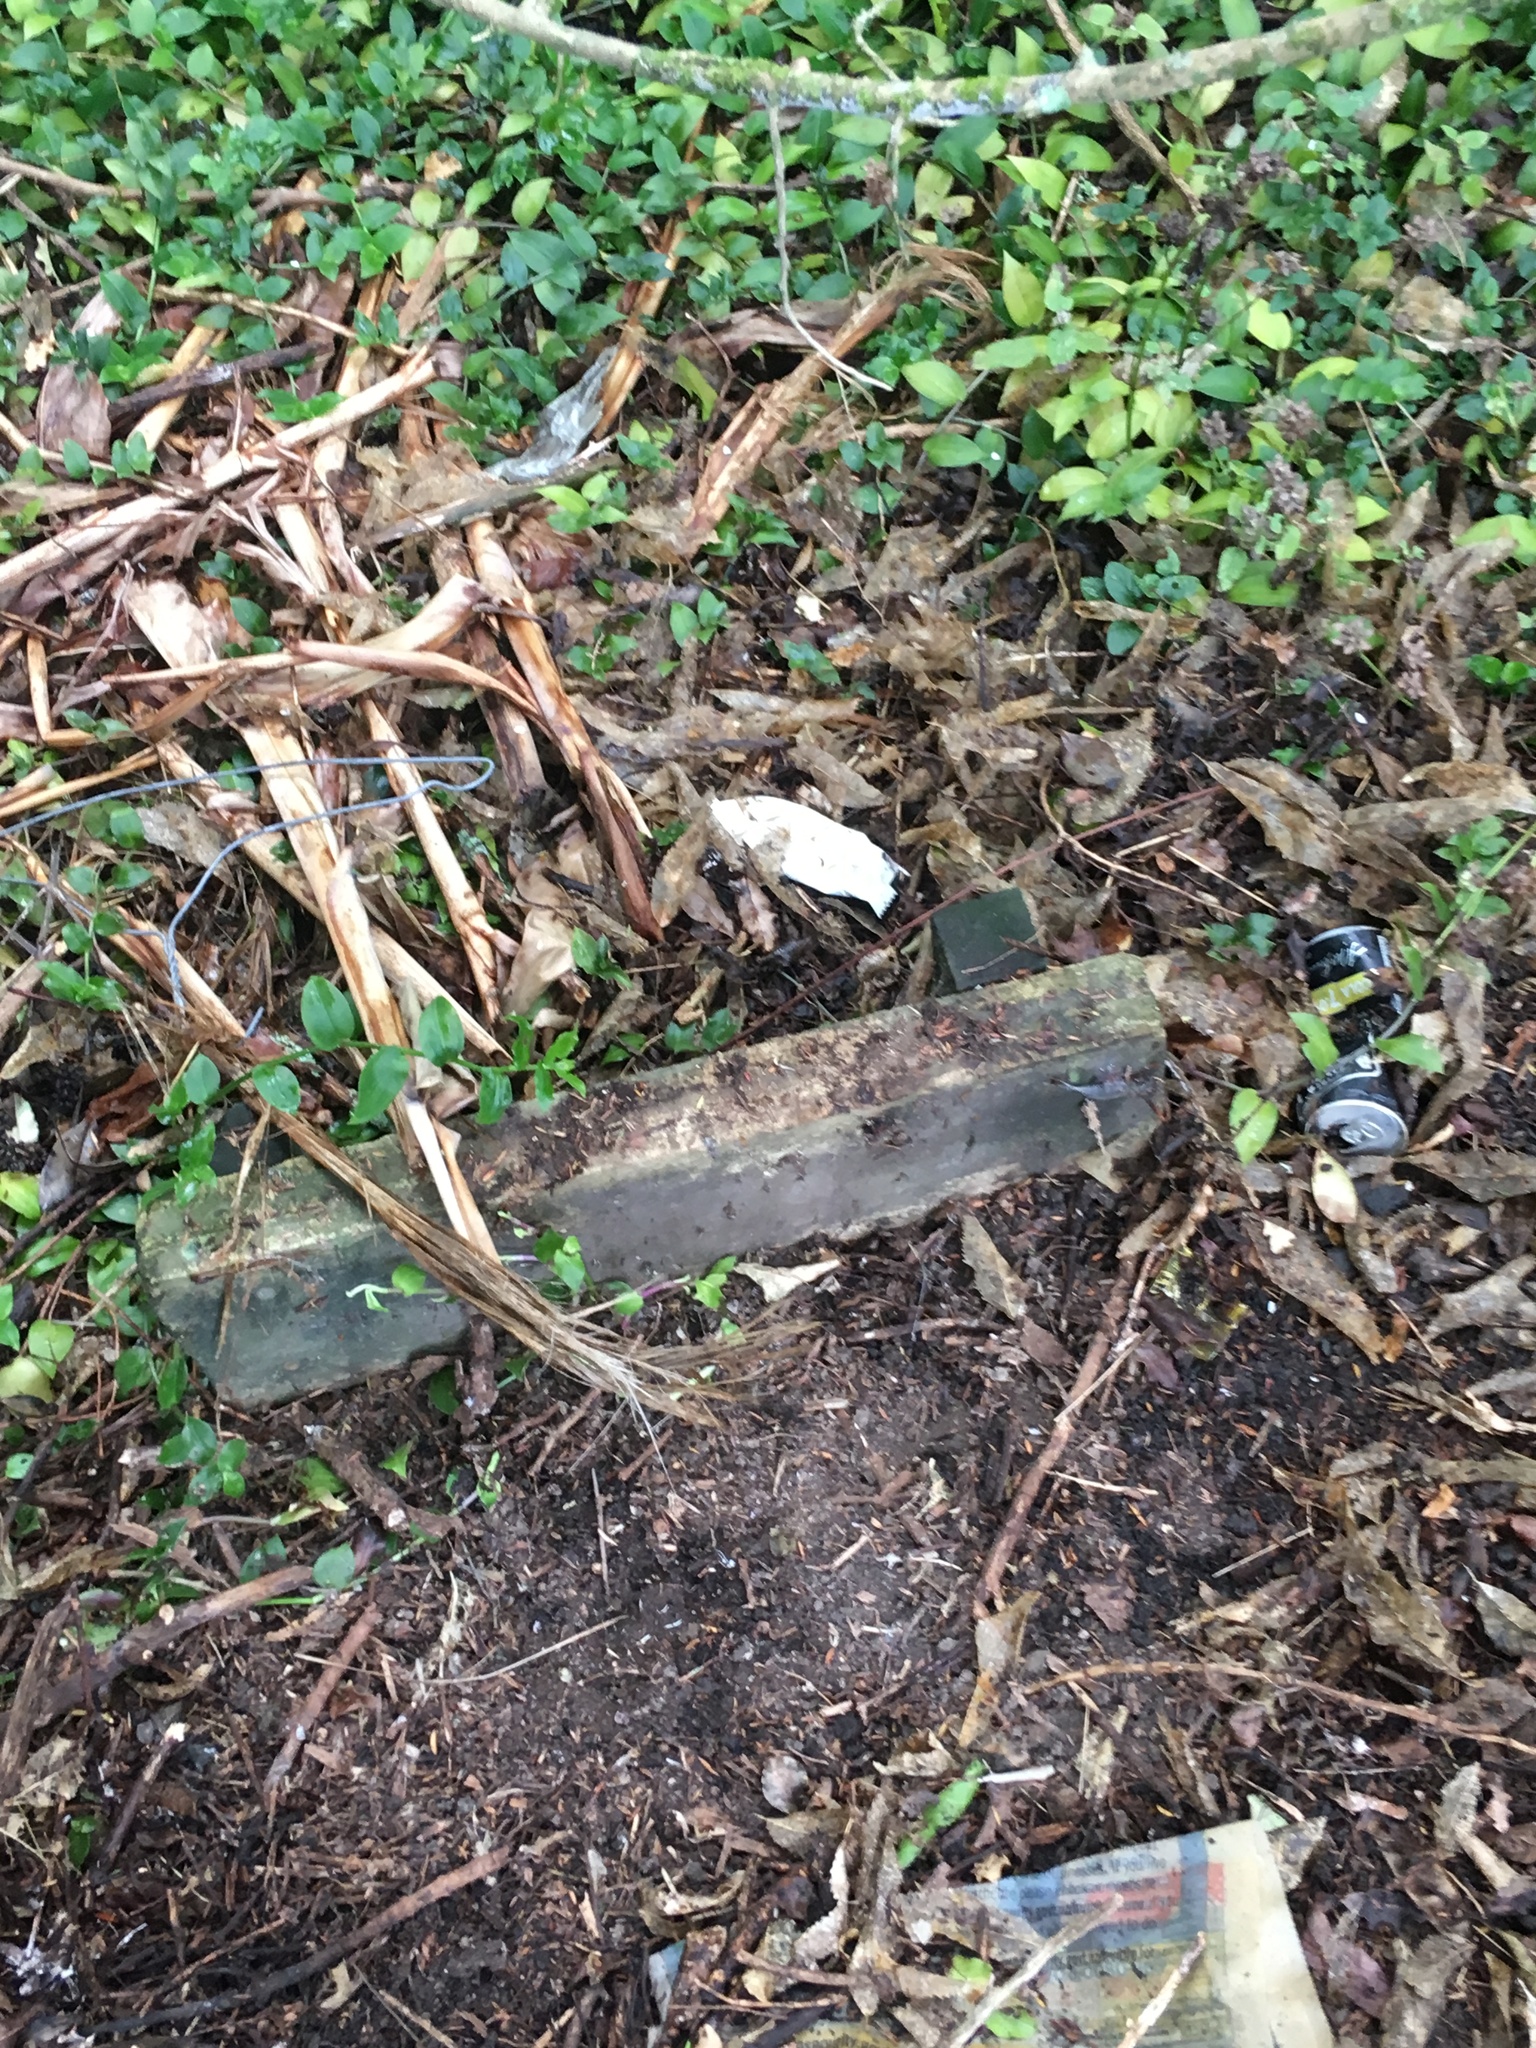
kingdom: Plantae
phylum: Tracheophyta
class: Liliopsida
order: Commelinales
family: Commelinaceae
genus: Tradescantia
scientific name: Tradescantia fluminensis
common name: Wandering-jew
